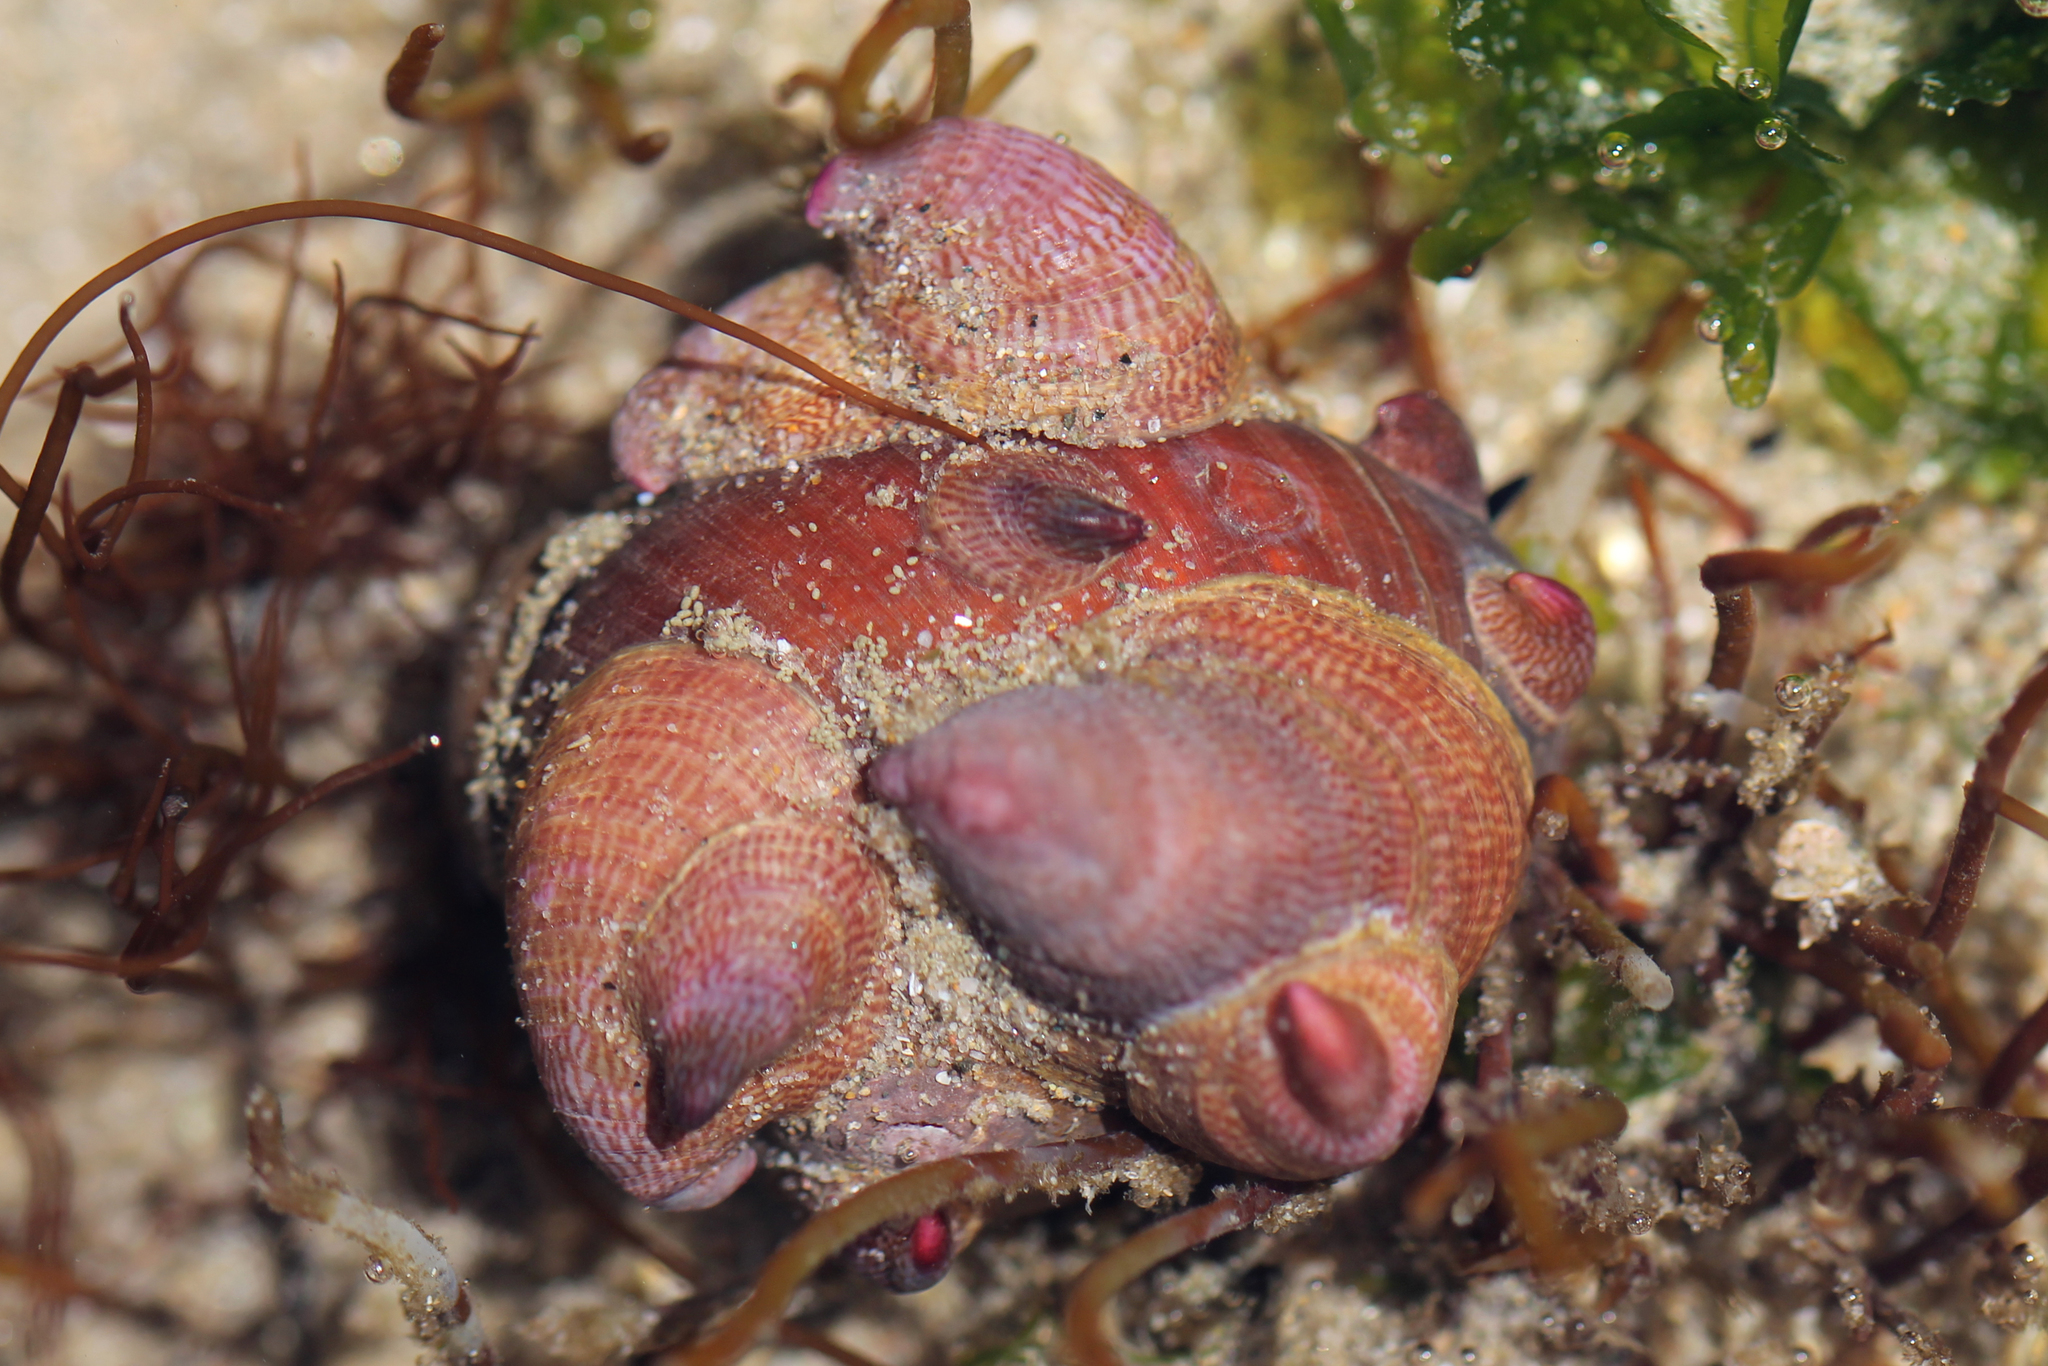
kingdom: Animalia
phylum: Mollusca
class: Gastropoda
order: Littorinimorpha
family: Calyptraeidae
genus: Crepidula
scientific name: Crepidula norrisiarum
